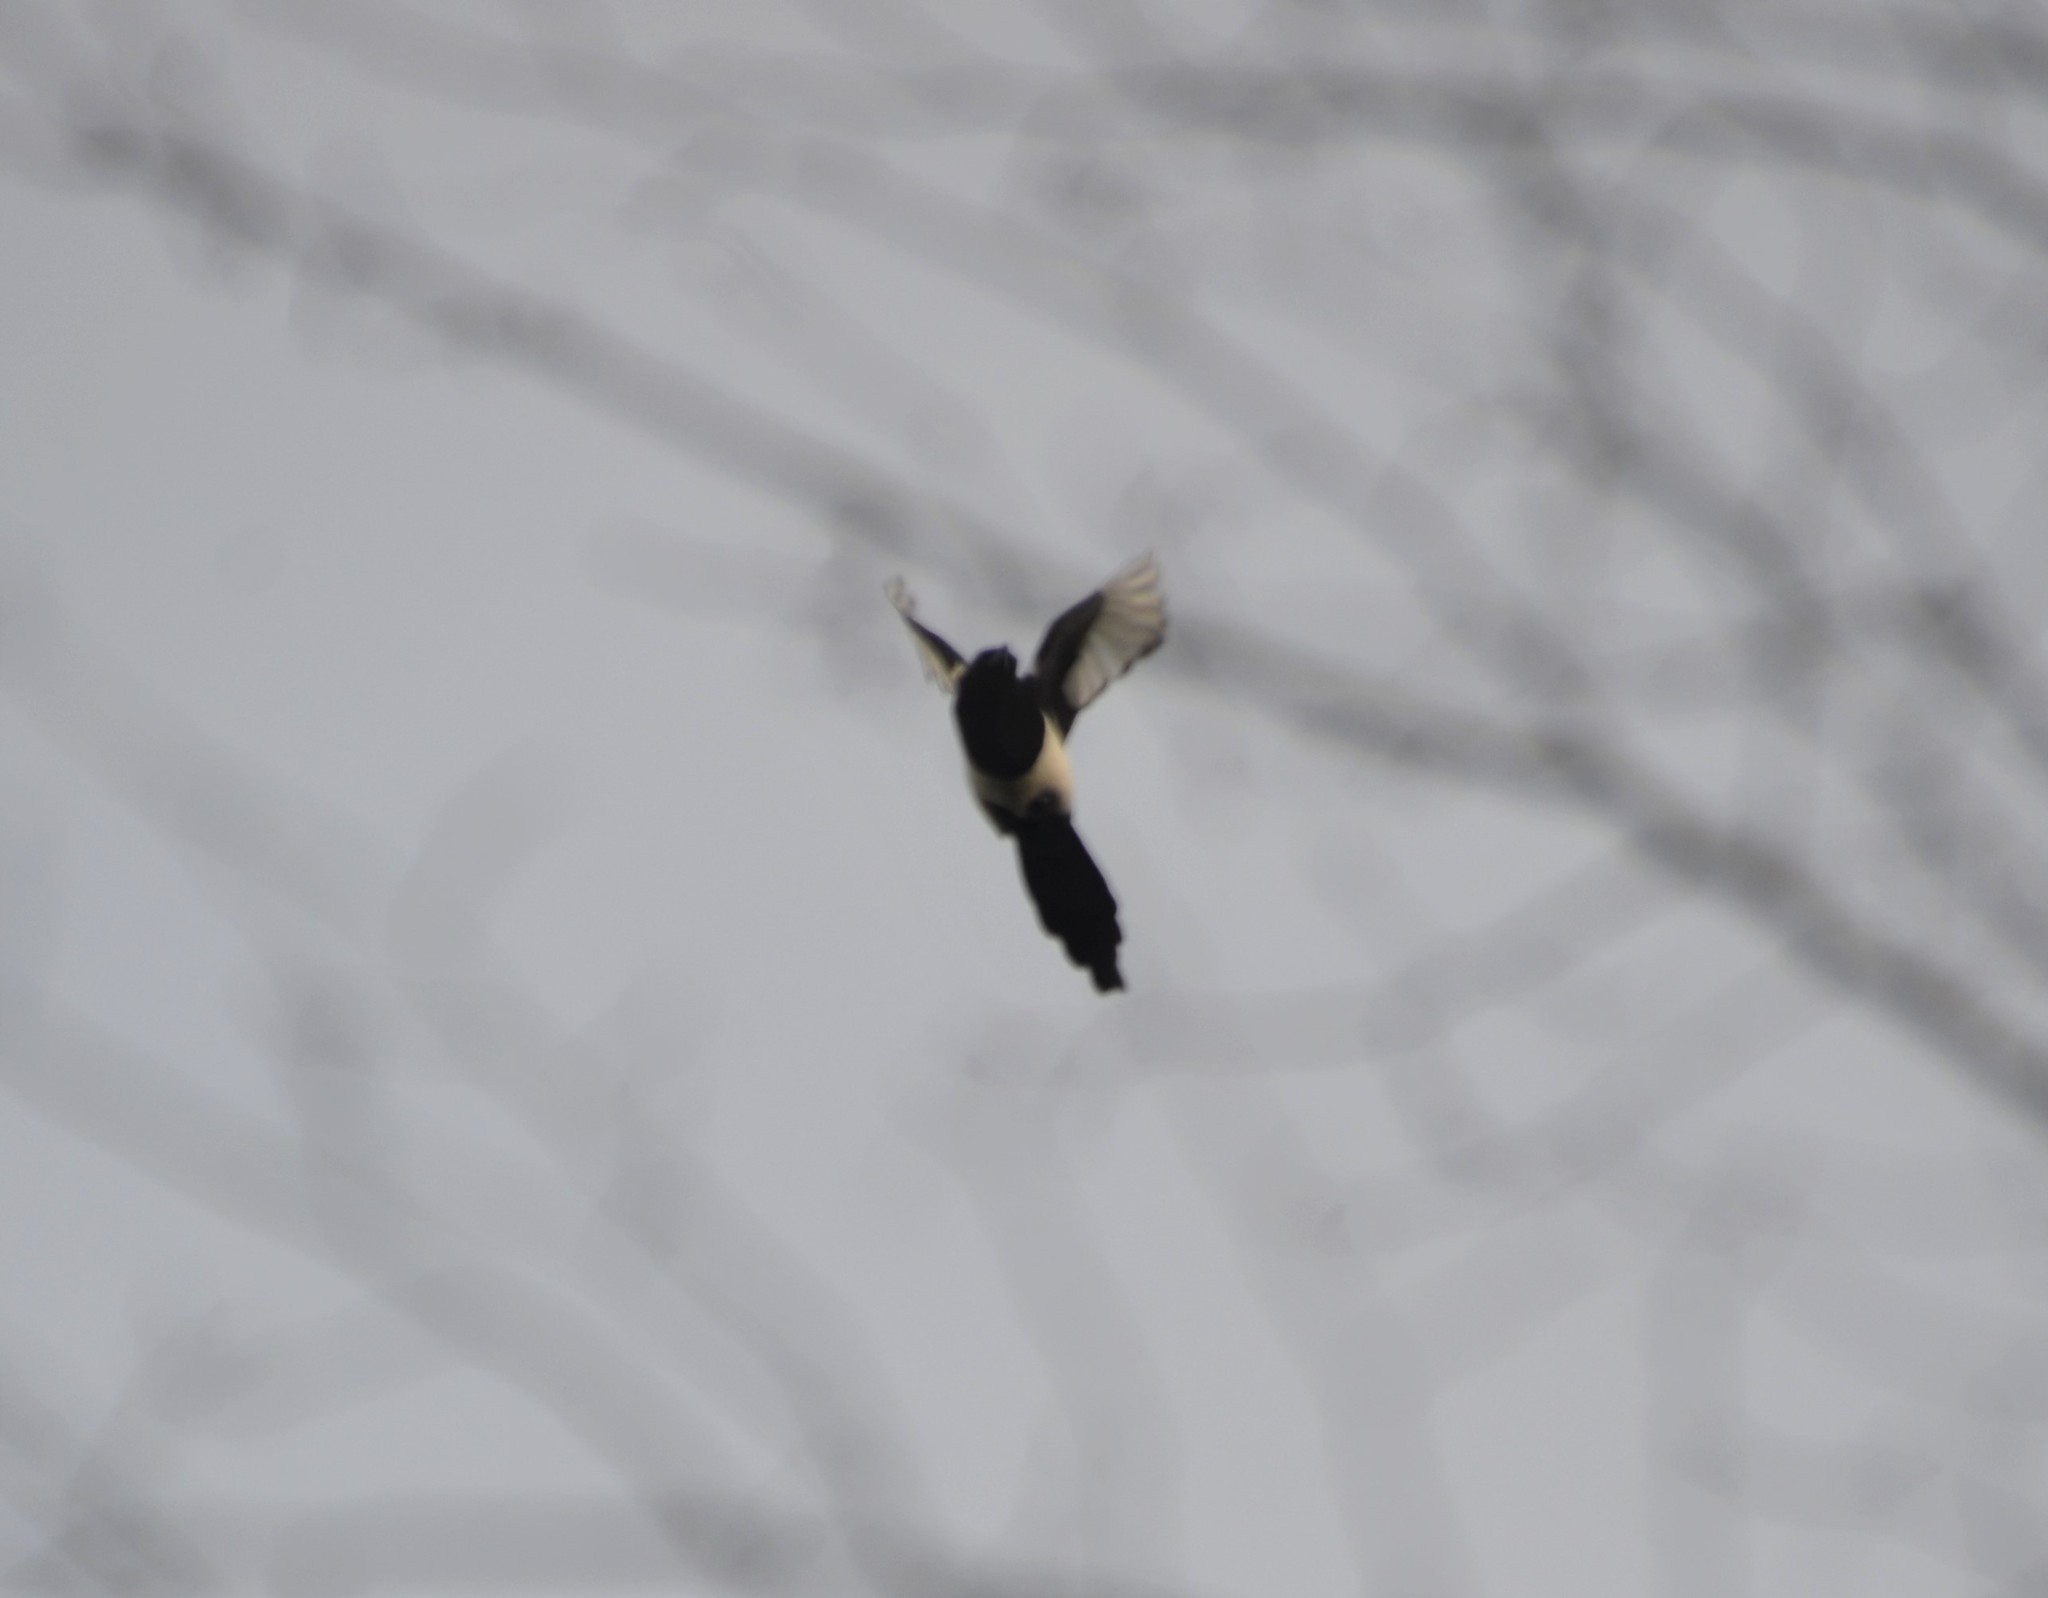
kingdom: Animalia
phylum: Chordata
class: Aves
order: Passeriformes
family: Corvidae
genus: Pica
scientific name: Pica pica
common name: Eurasian magpie
